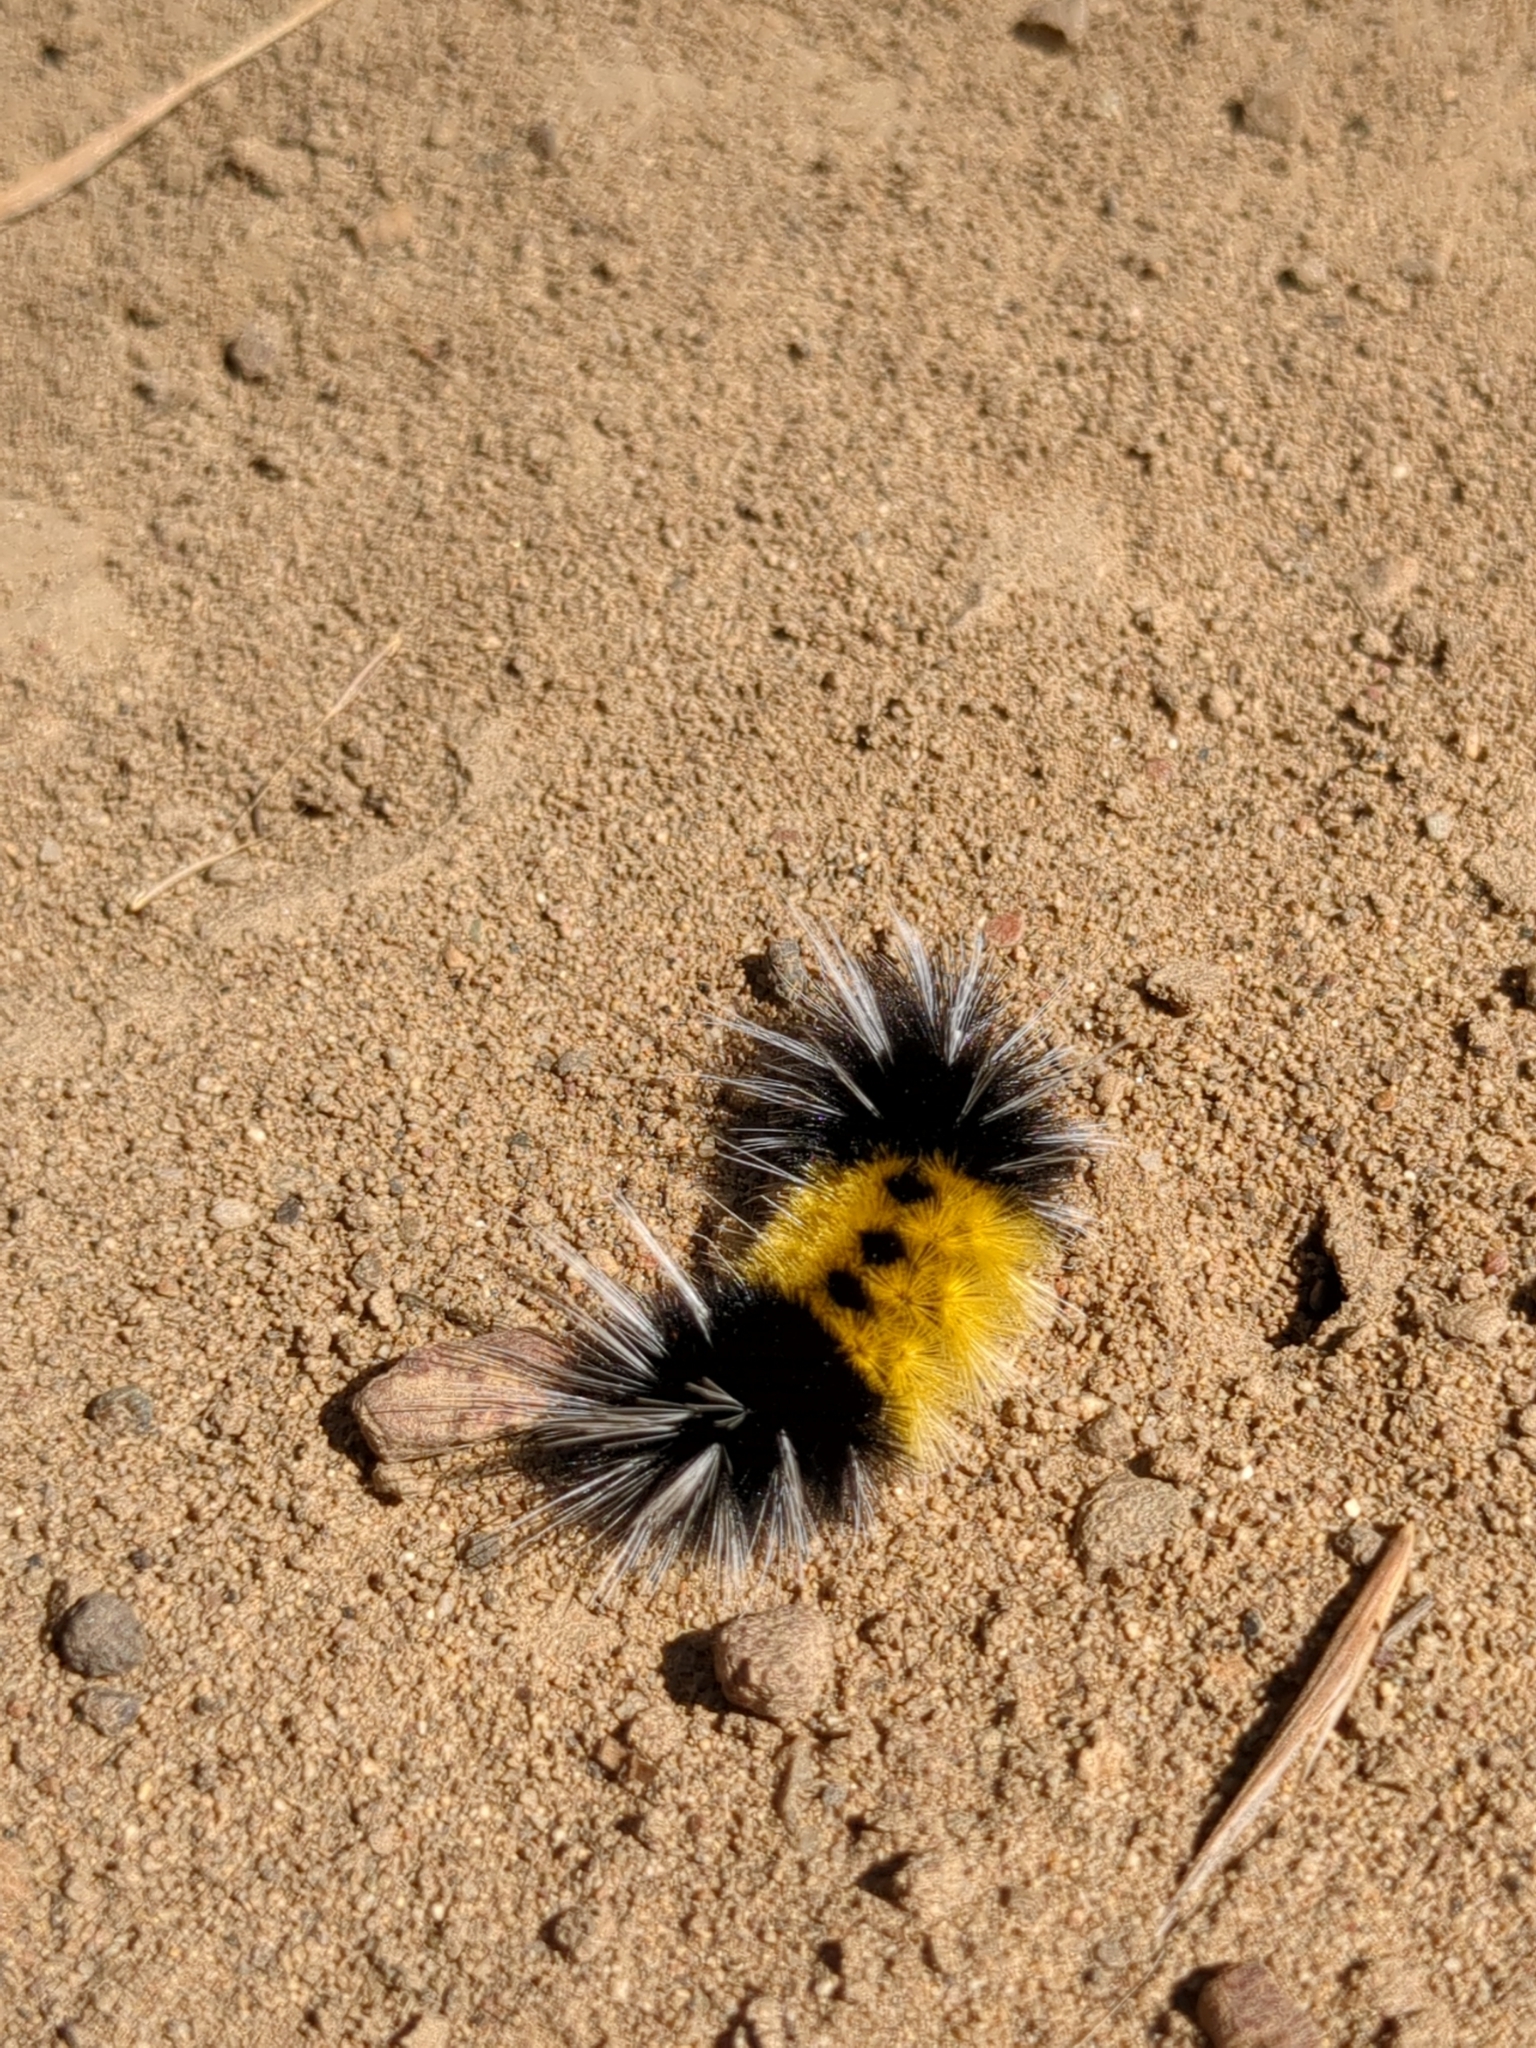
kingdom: Animalia
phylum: Arthropoda
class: Insecta
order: Lepidoptera
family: Erebidae
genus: Lophocampa
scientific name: Lophocampa maculata
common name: Spotted tussock moth
